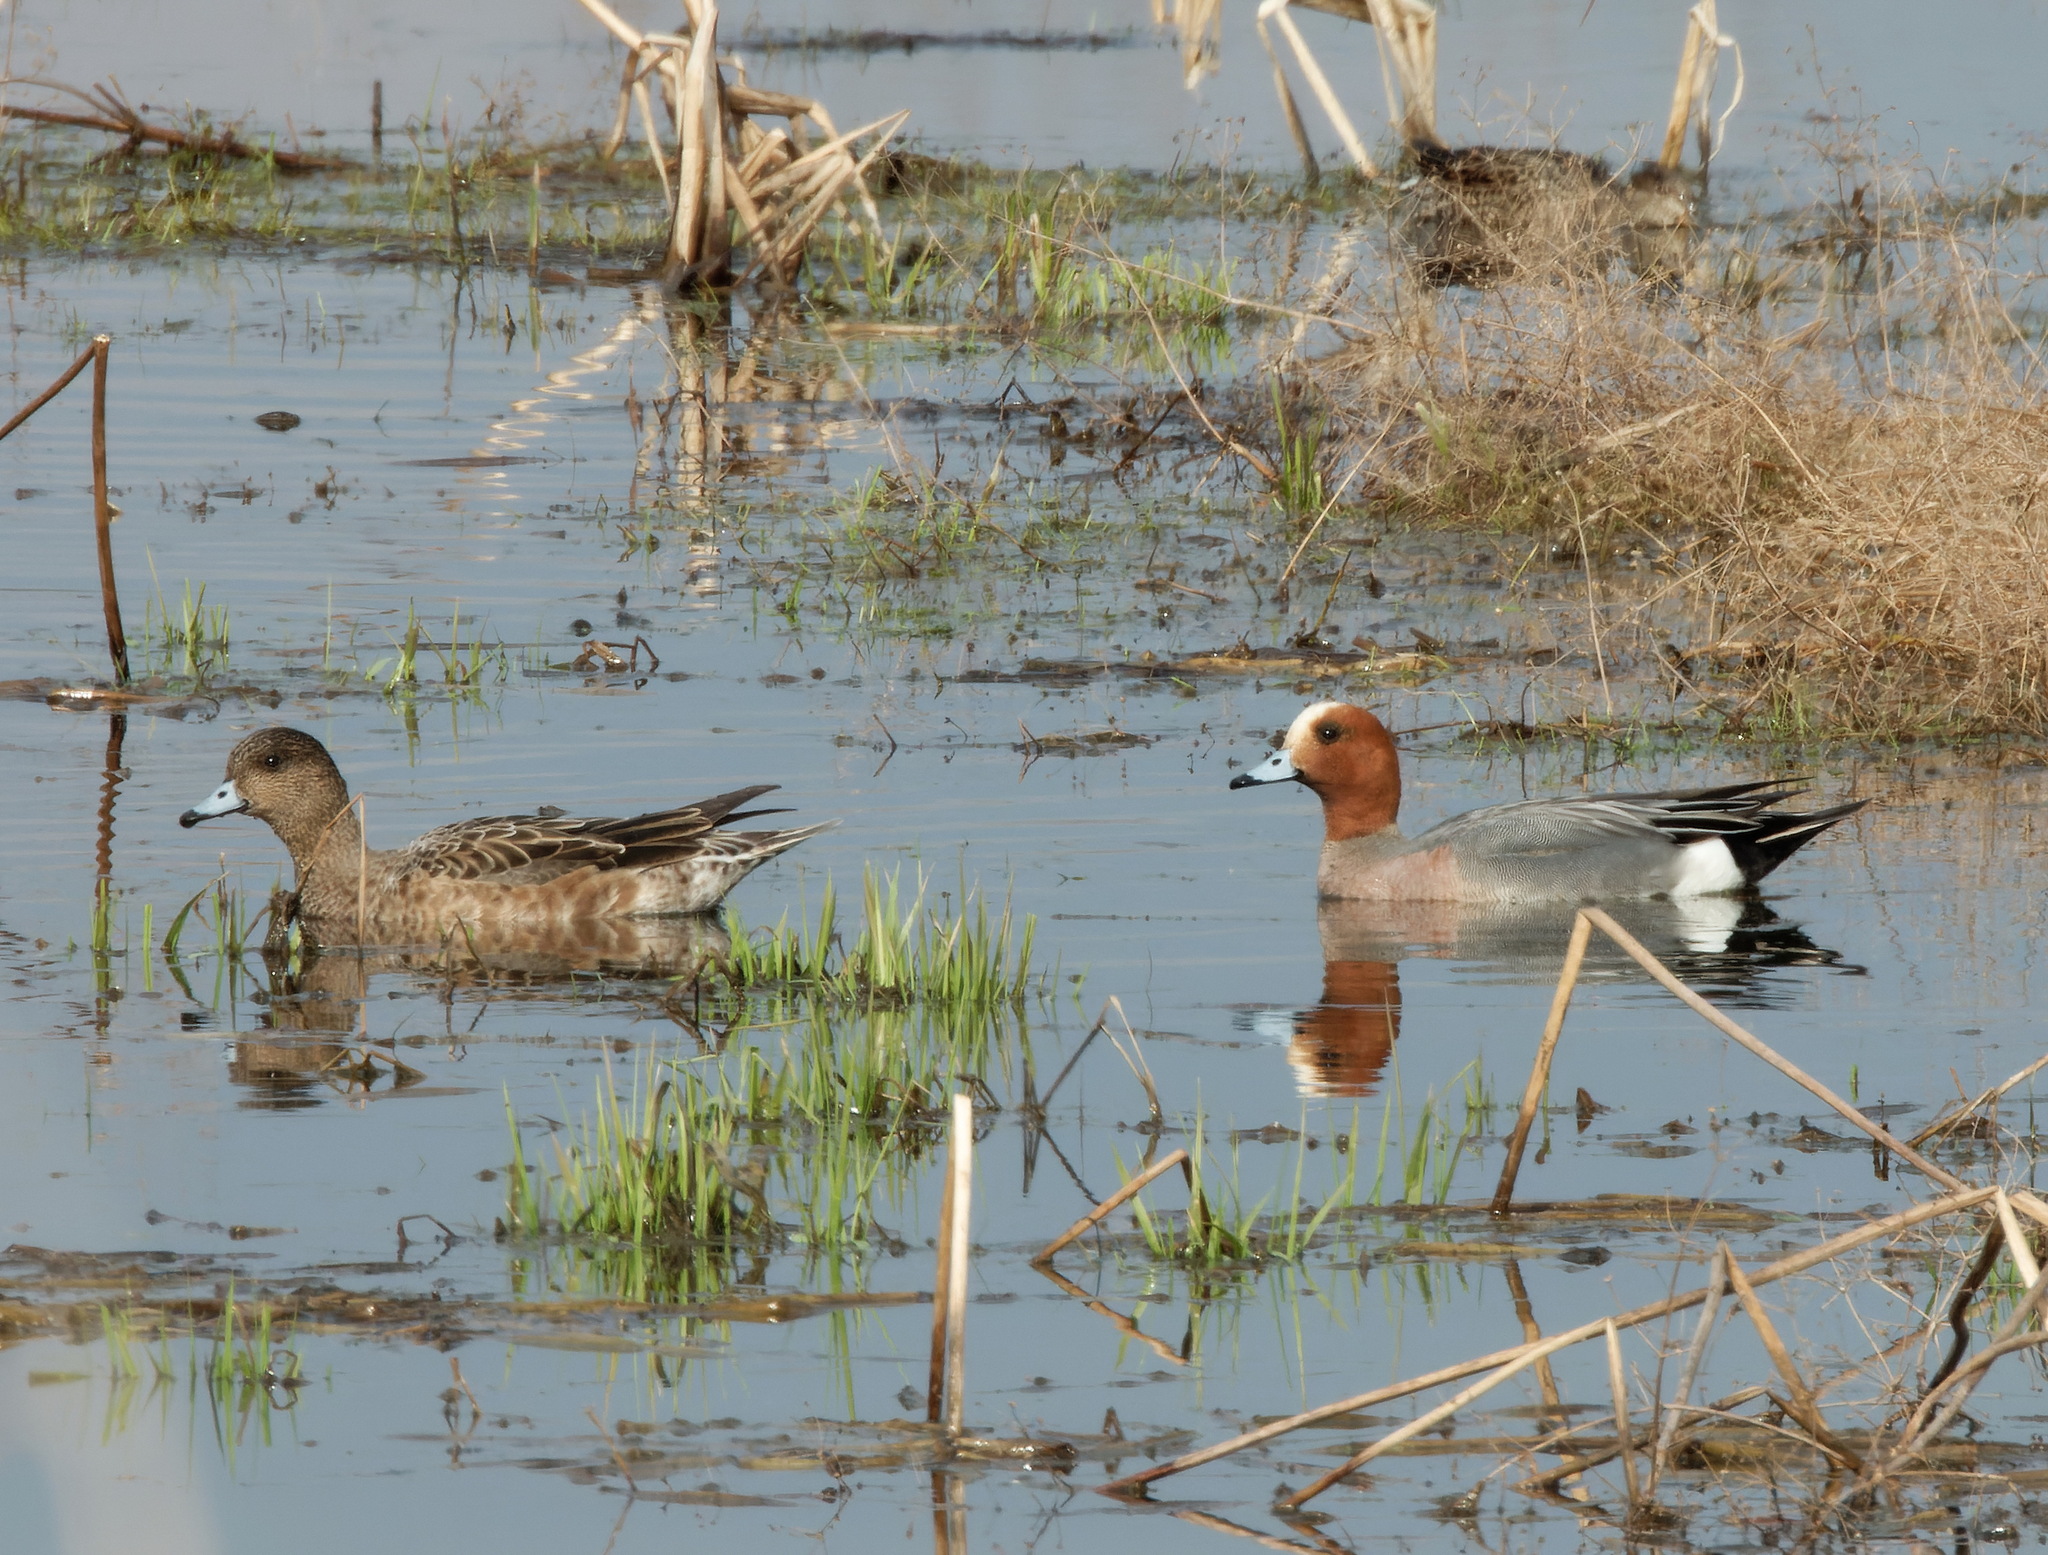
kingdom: Animalia
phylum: Chordata
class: Aves
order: Anseriformes
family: Anatidae
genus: Mareca
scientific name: Mareca penelope
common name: Eurasian wigeon
